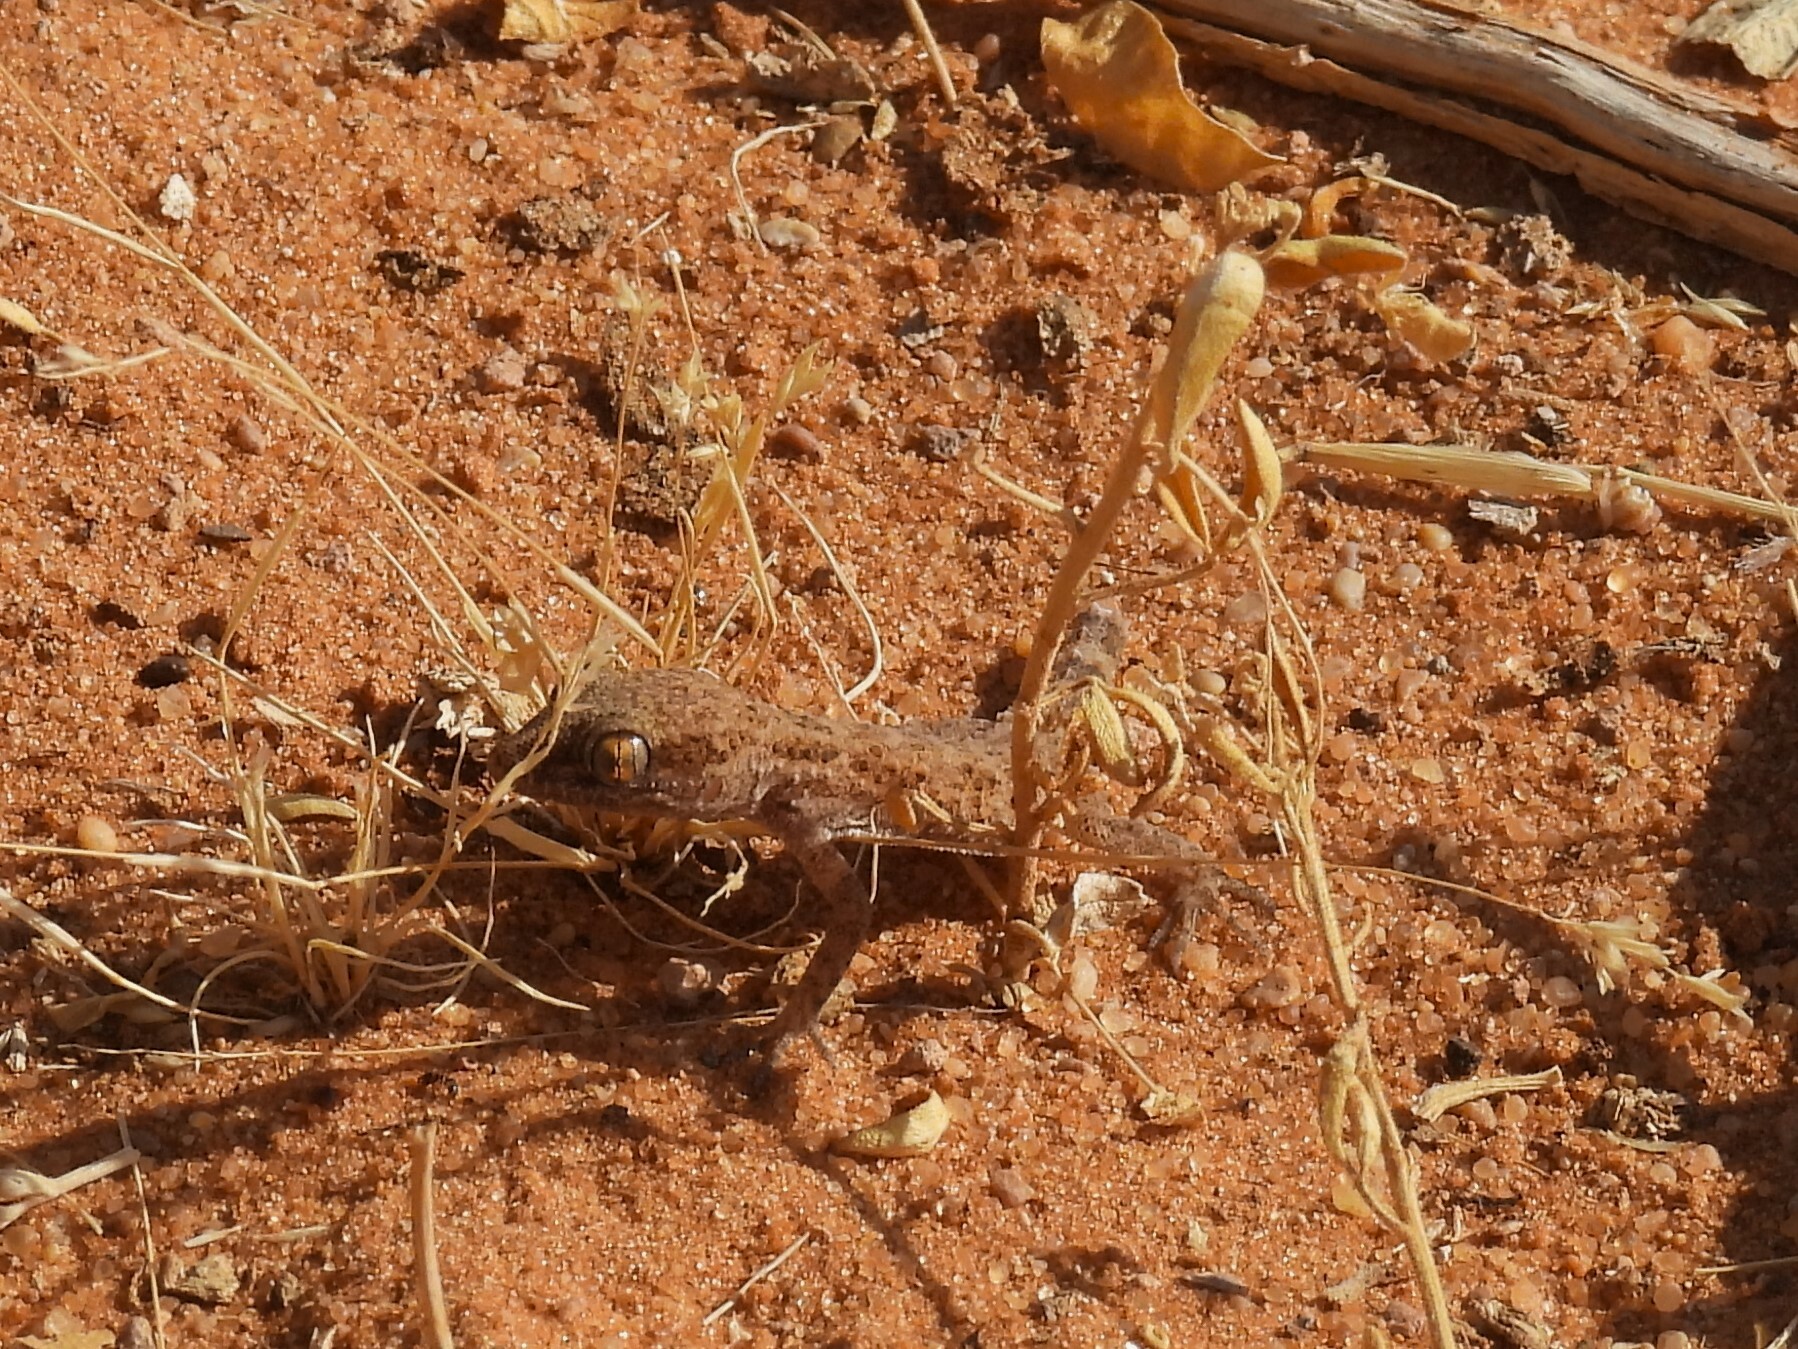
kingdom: Animalia
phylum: Chordata
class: Squamata
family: Gekkonidae
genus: Bunopus
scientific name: Bunopus tuberculatus
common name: Southern tuberculated gecko
